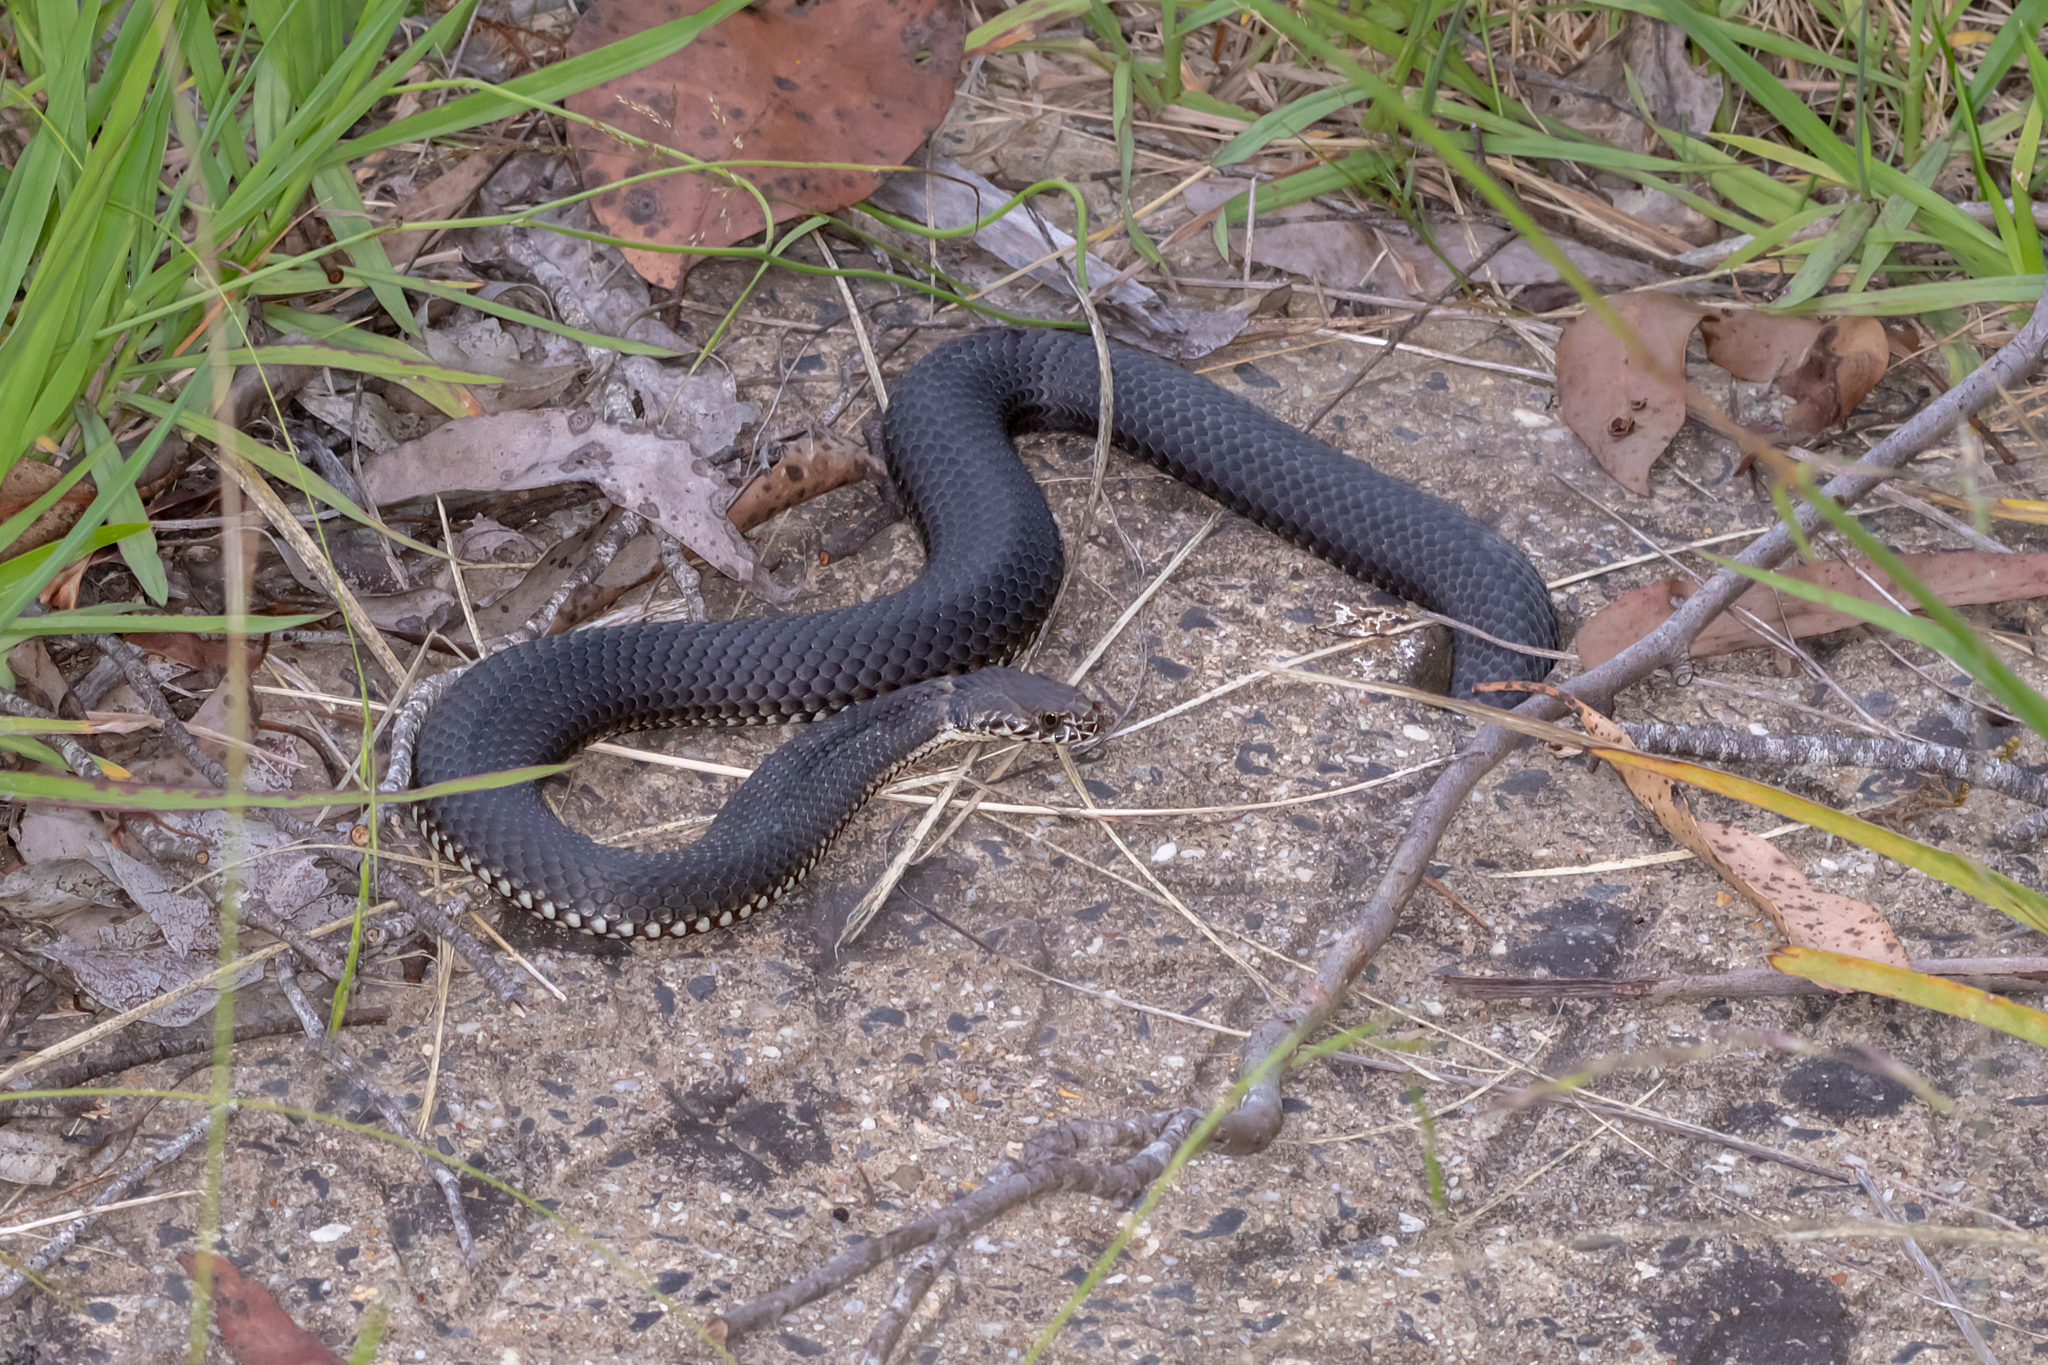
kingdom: Animalia
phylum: Chordata
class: Squamata
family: Elapidae
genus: Austrelaps
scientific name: Austrelaps ramsayi
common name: Highlands copperhead
